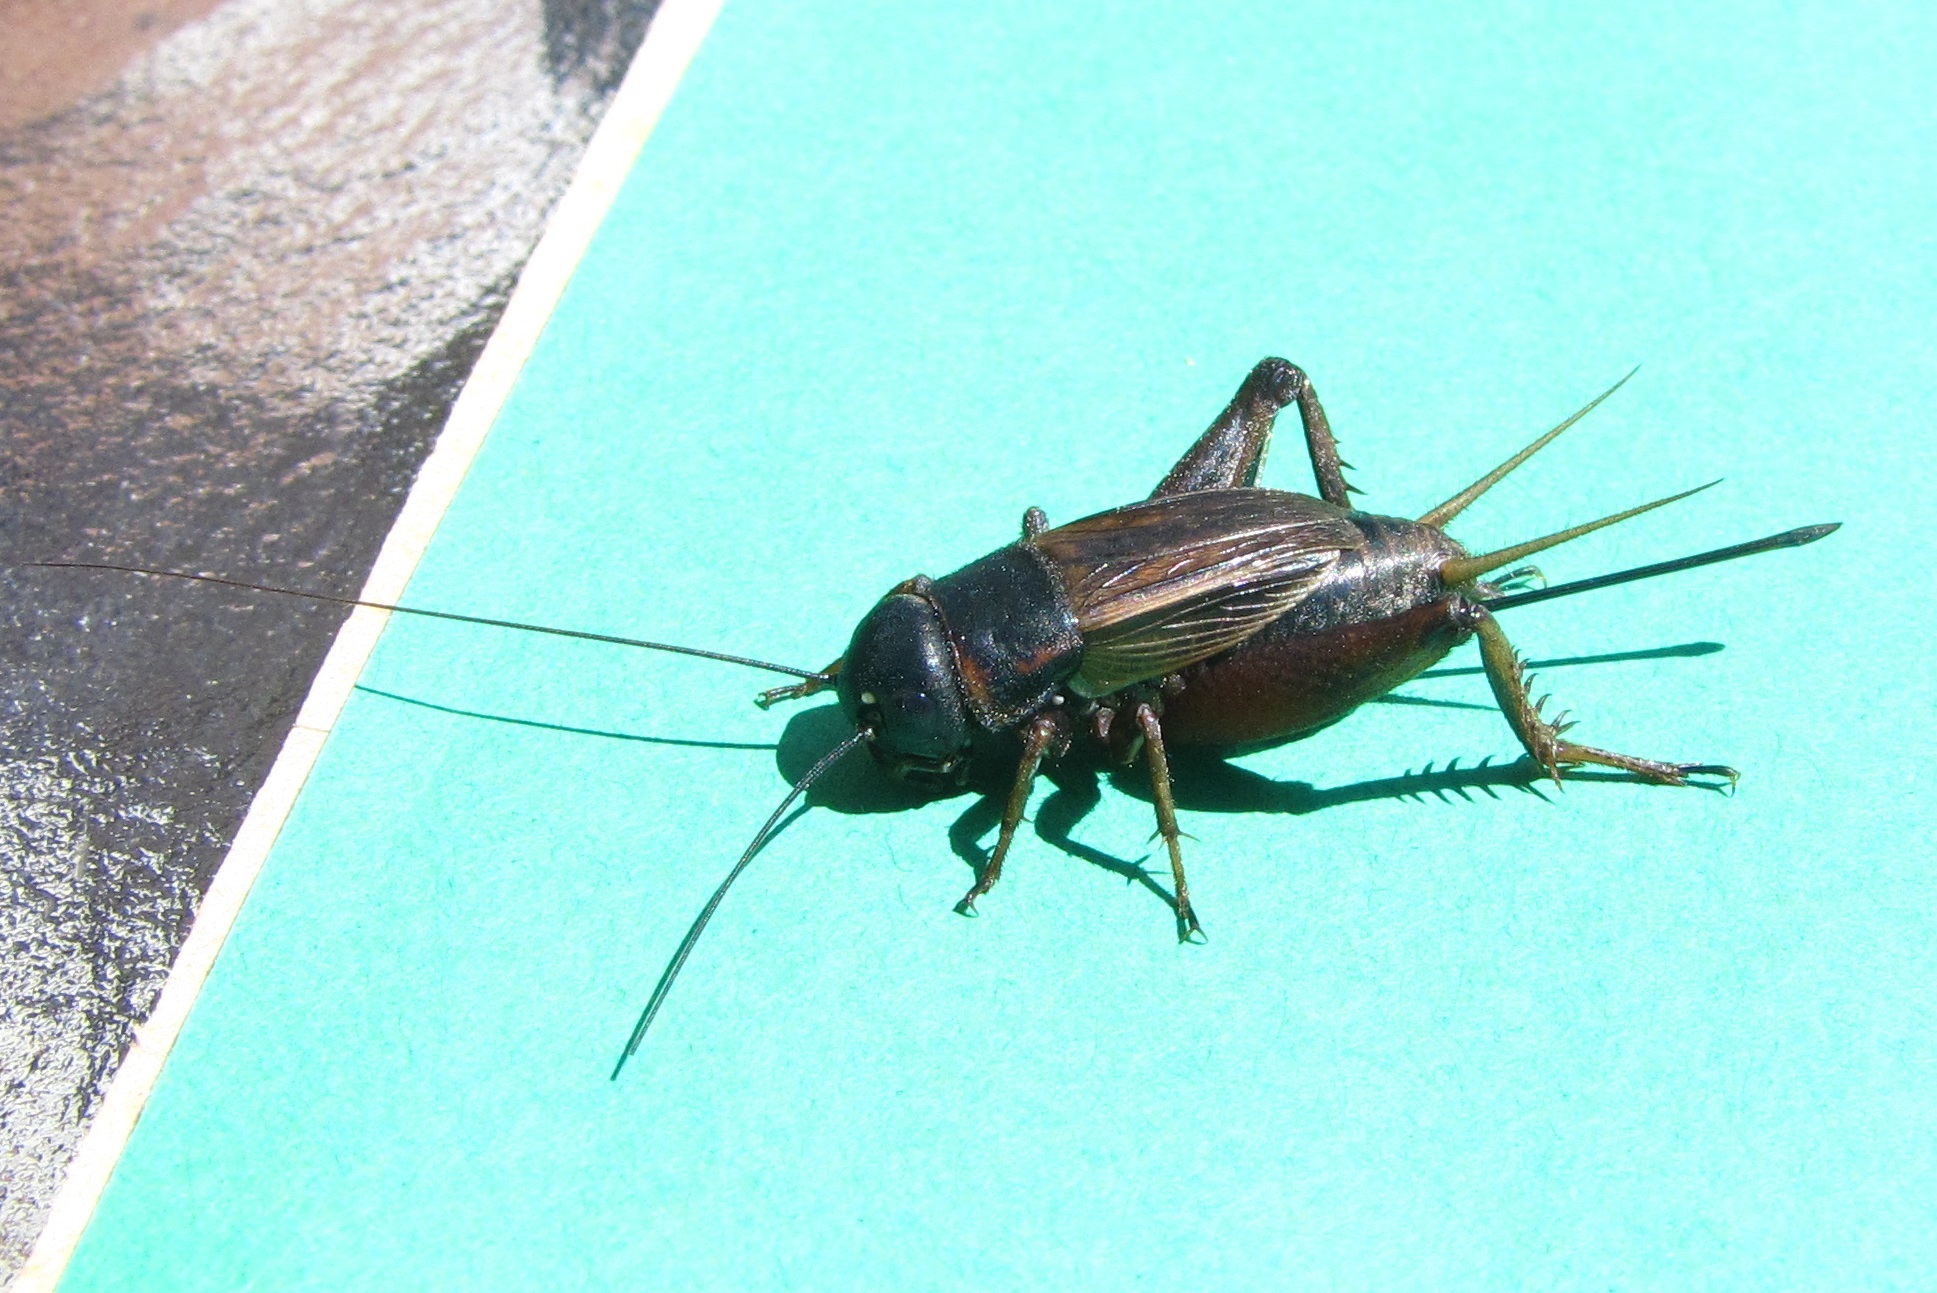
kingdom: Animalia
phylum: Arthropoda
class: Insecta
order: Orthoptera
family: Gryllidae
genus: Gryllus
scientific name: Gryllus rubens
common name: Southeastern field cricket
